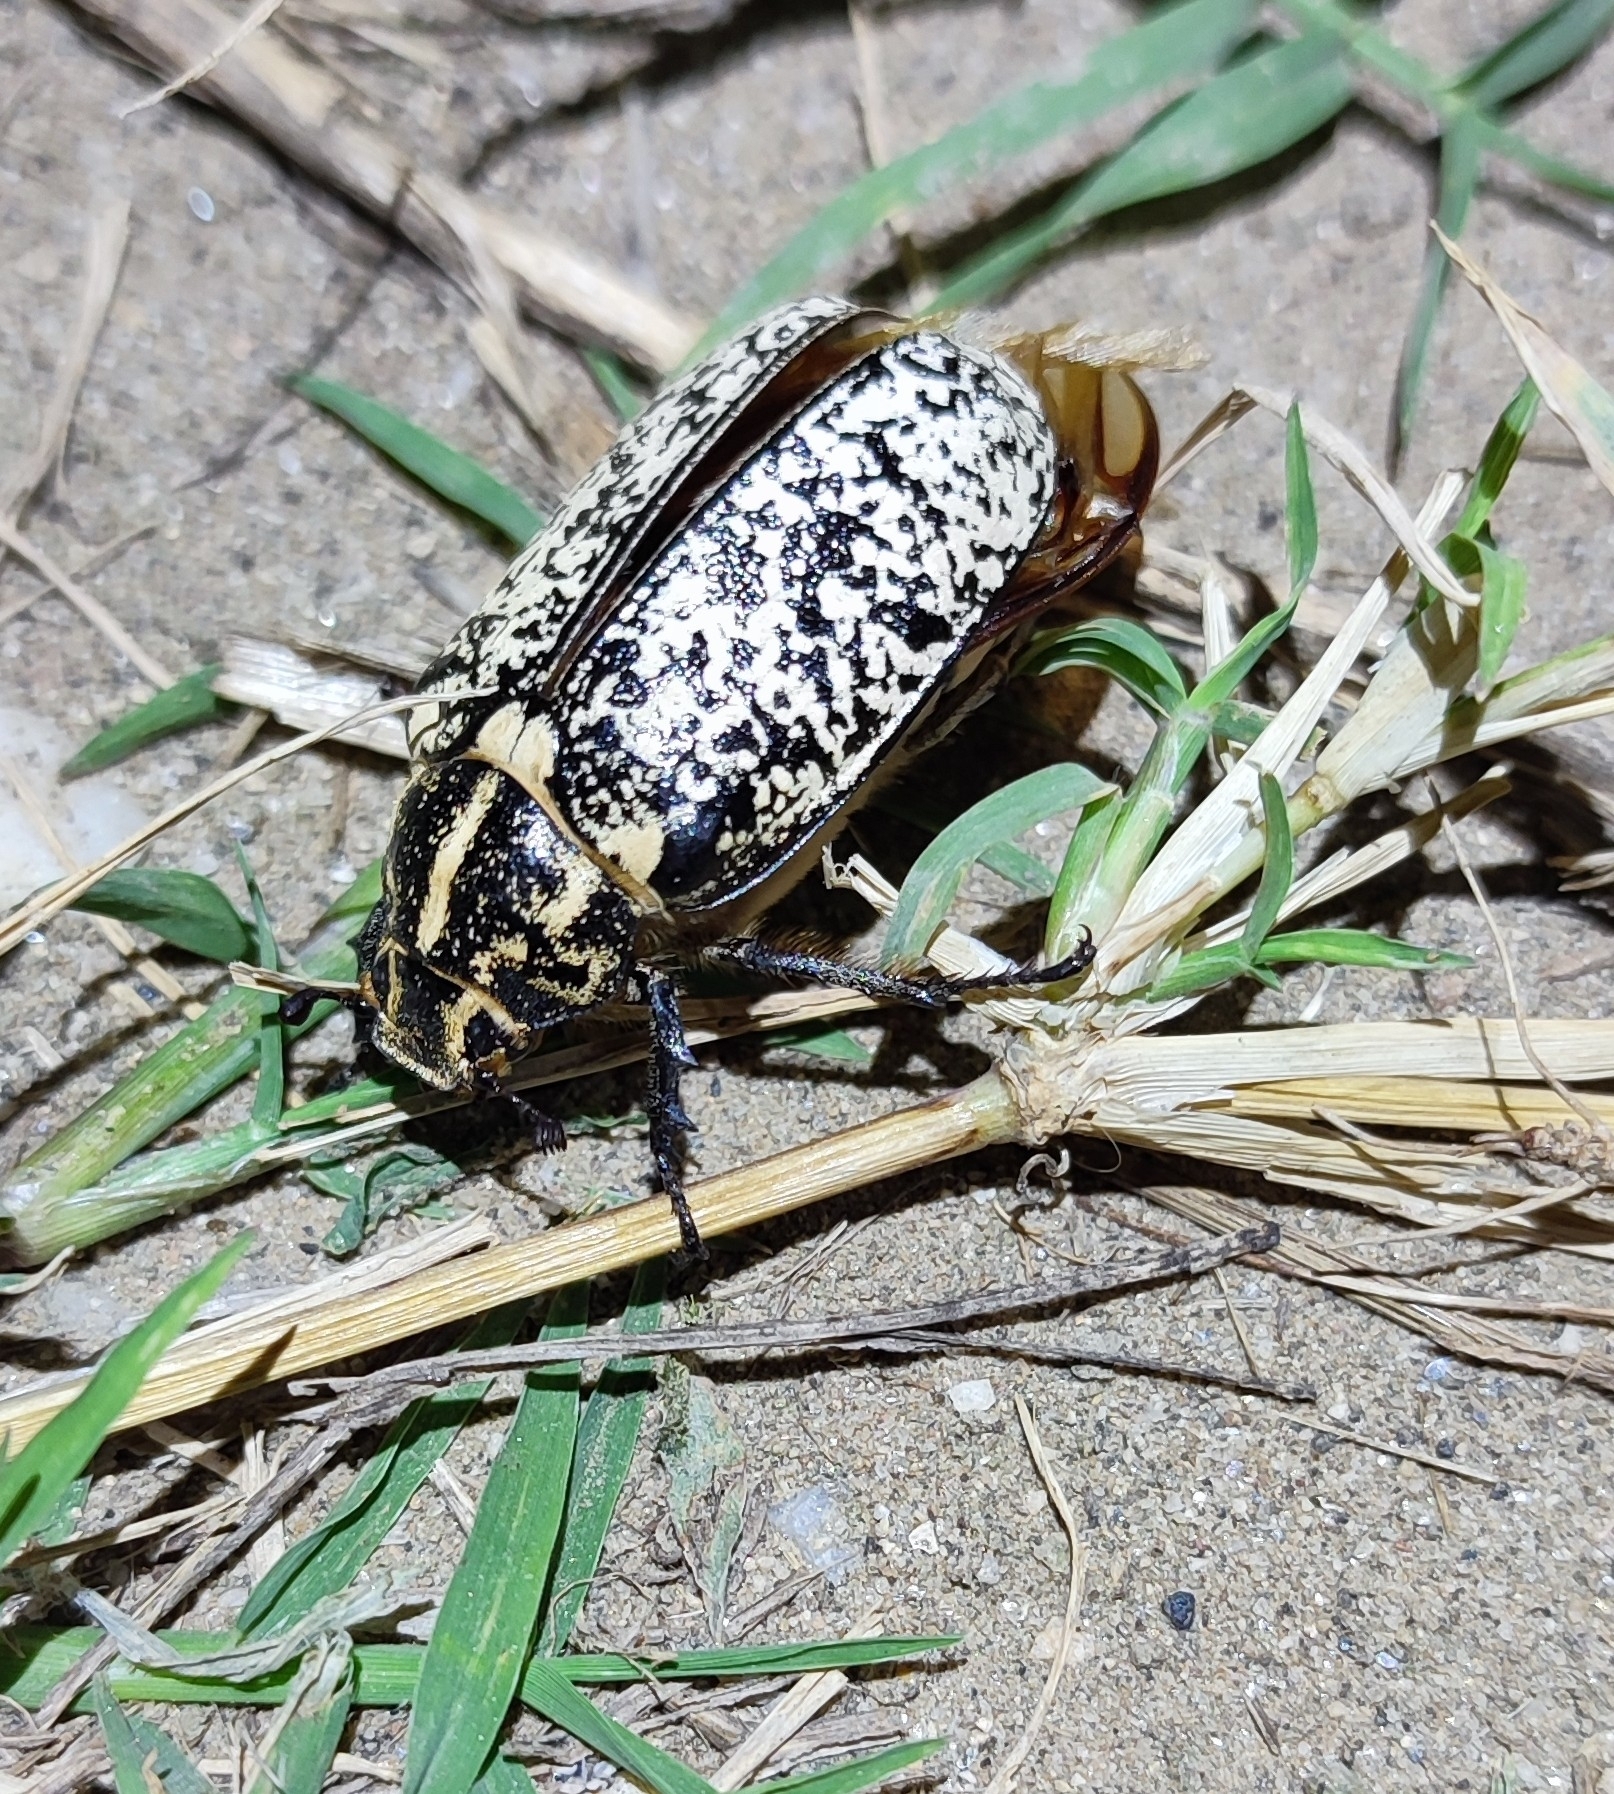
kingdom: Animalia
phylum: Arthropoda
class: Insecta
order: Coleoptera
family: Scarabaeidae
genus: Polyphylla
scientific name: Polyphylla fullo
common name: Pine chafer
